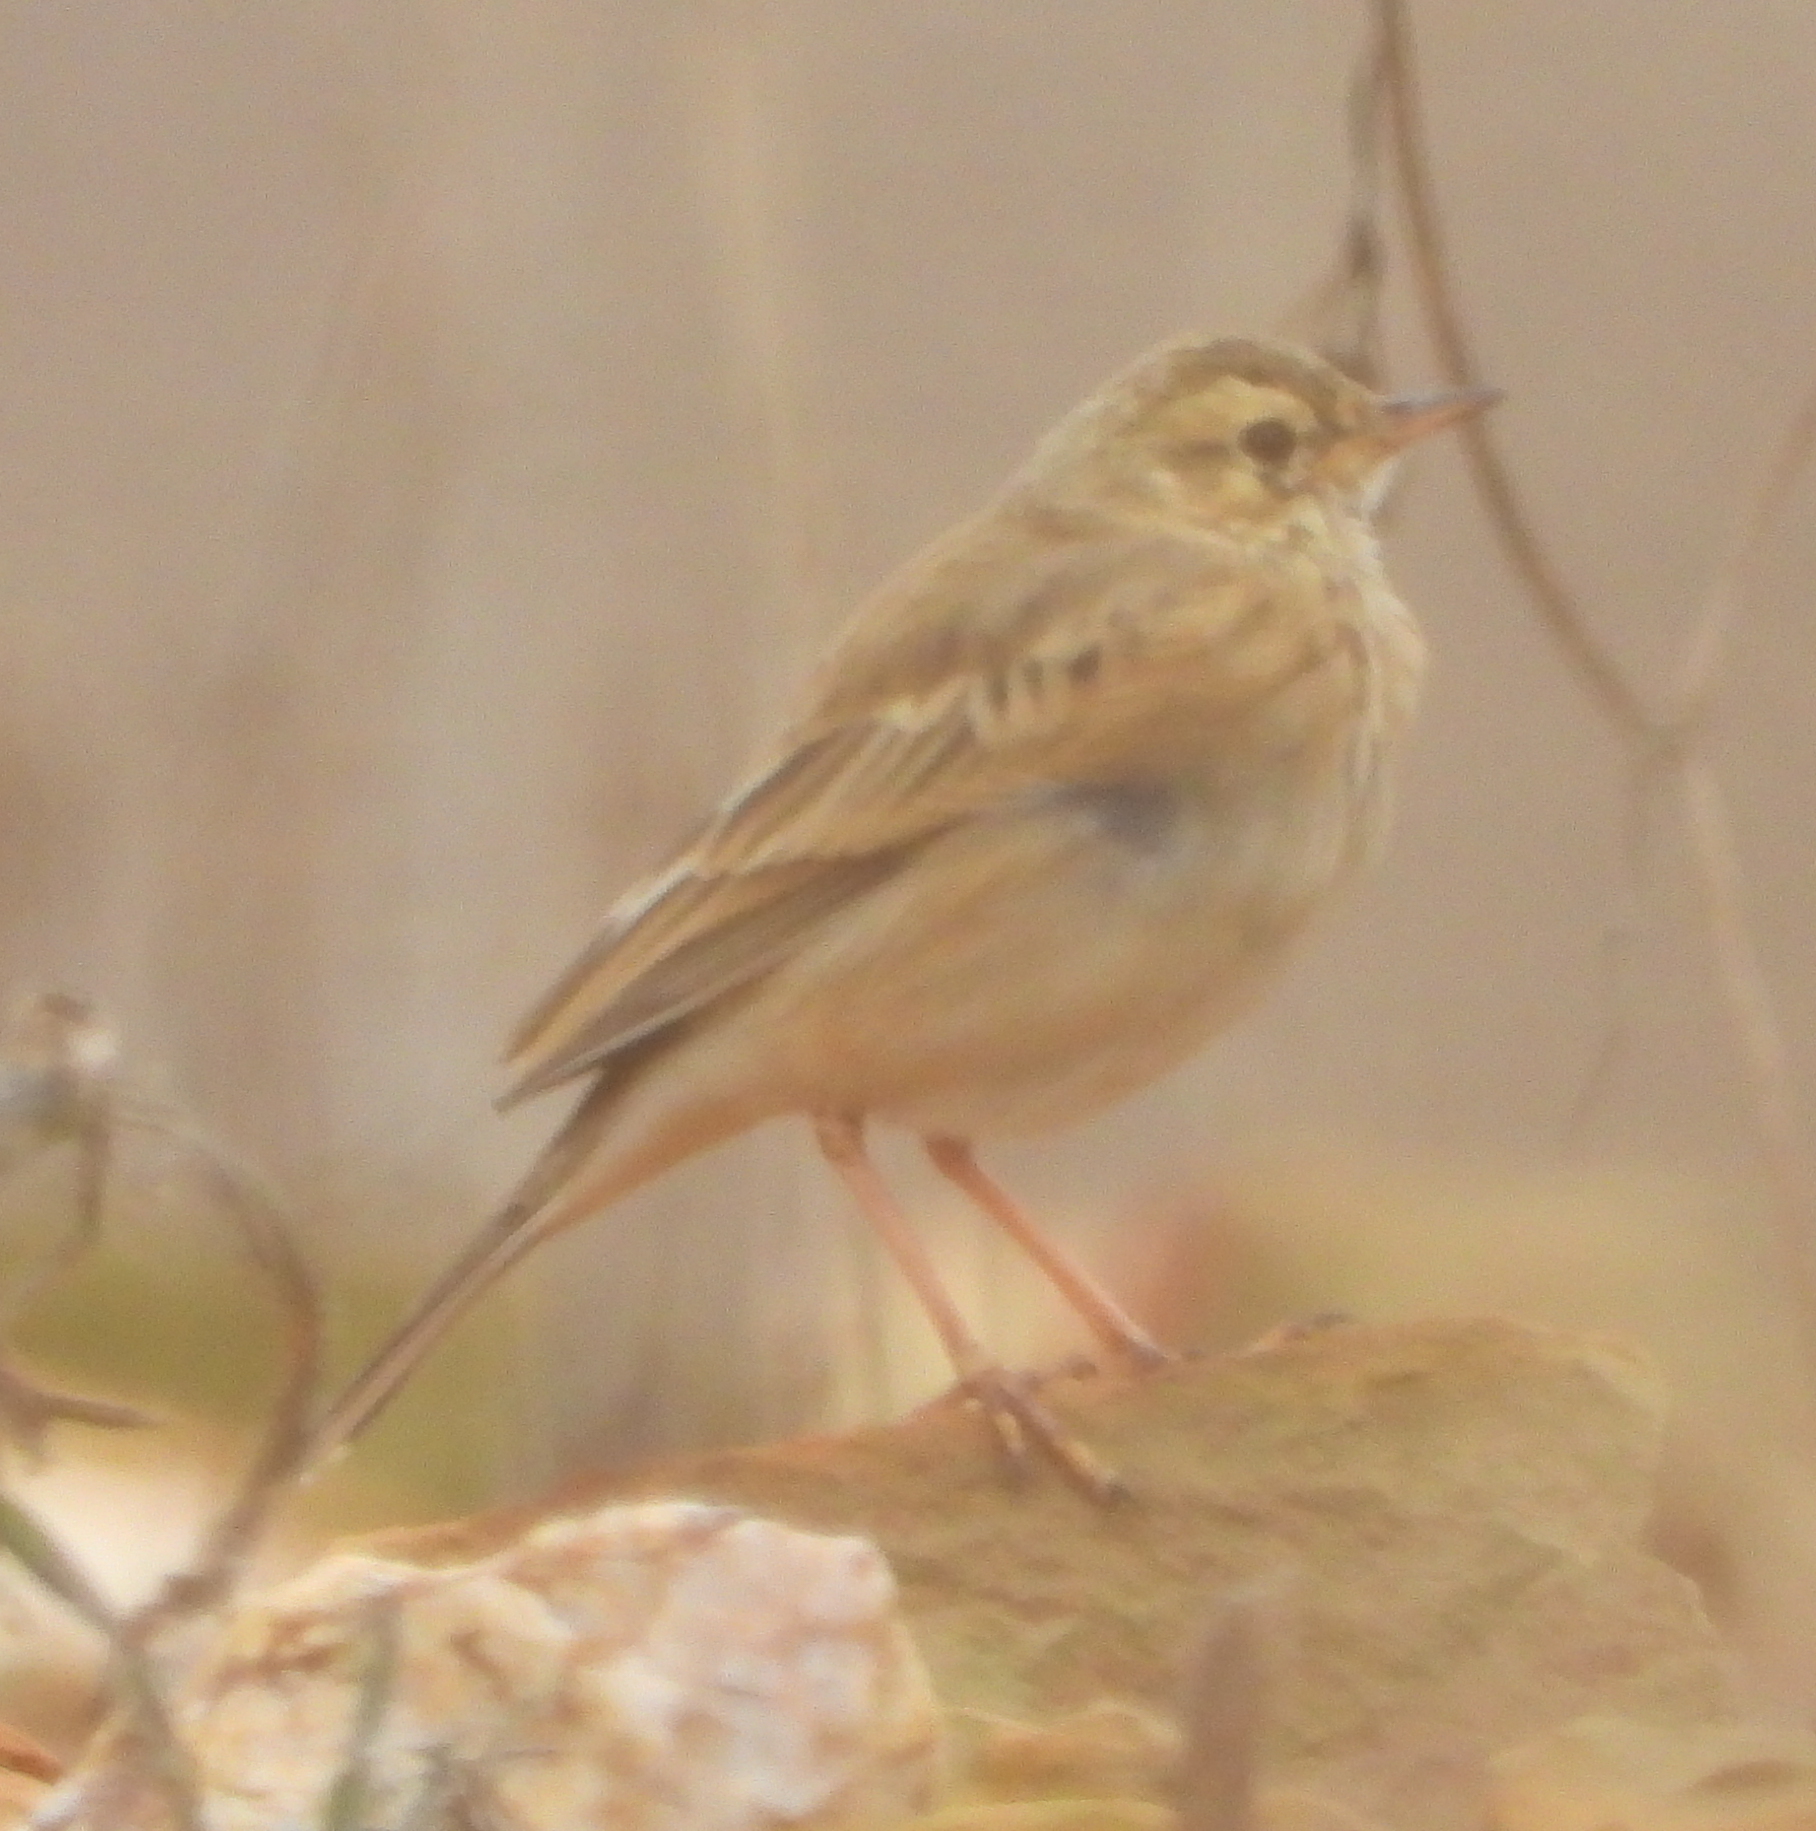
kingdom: Animalia
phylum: Chordata
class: Aves
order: Passeriformes
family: Motacillidae
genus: Anthus
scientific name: Anthus cinnamomeus
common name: African pipit
